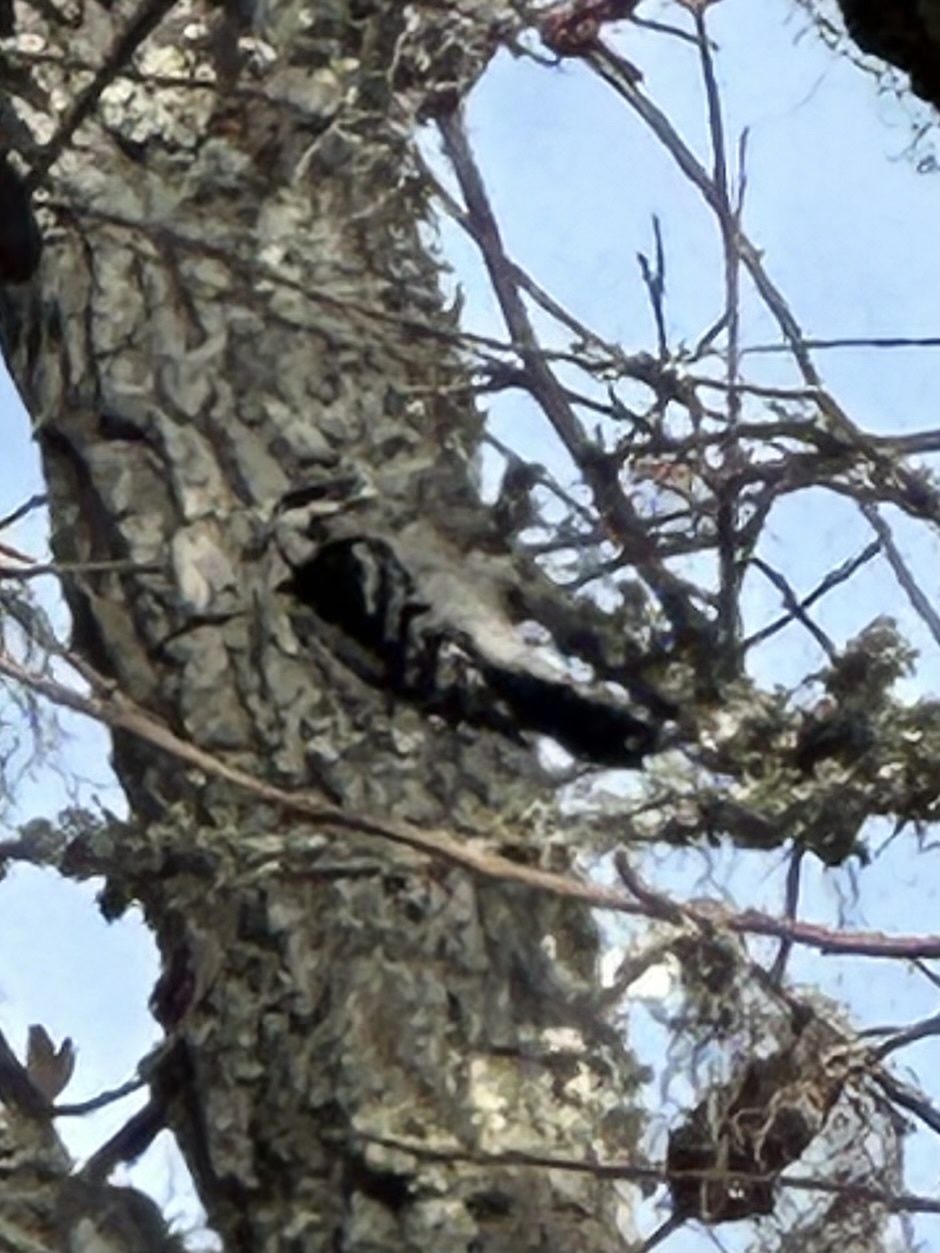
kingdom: Animalia
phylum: Chordata
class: Aves
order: Piciformes
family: Picidae
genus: Dryobates
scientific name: Dryobates pubescens
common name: Downy woodpecker
